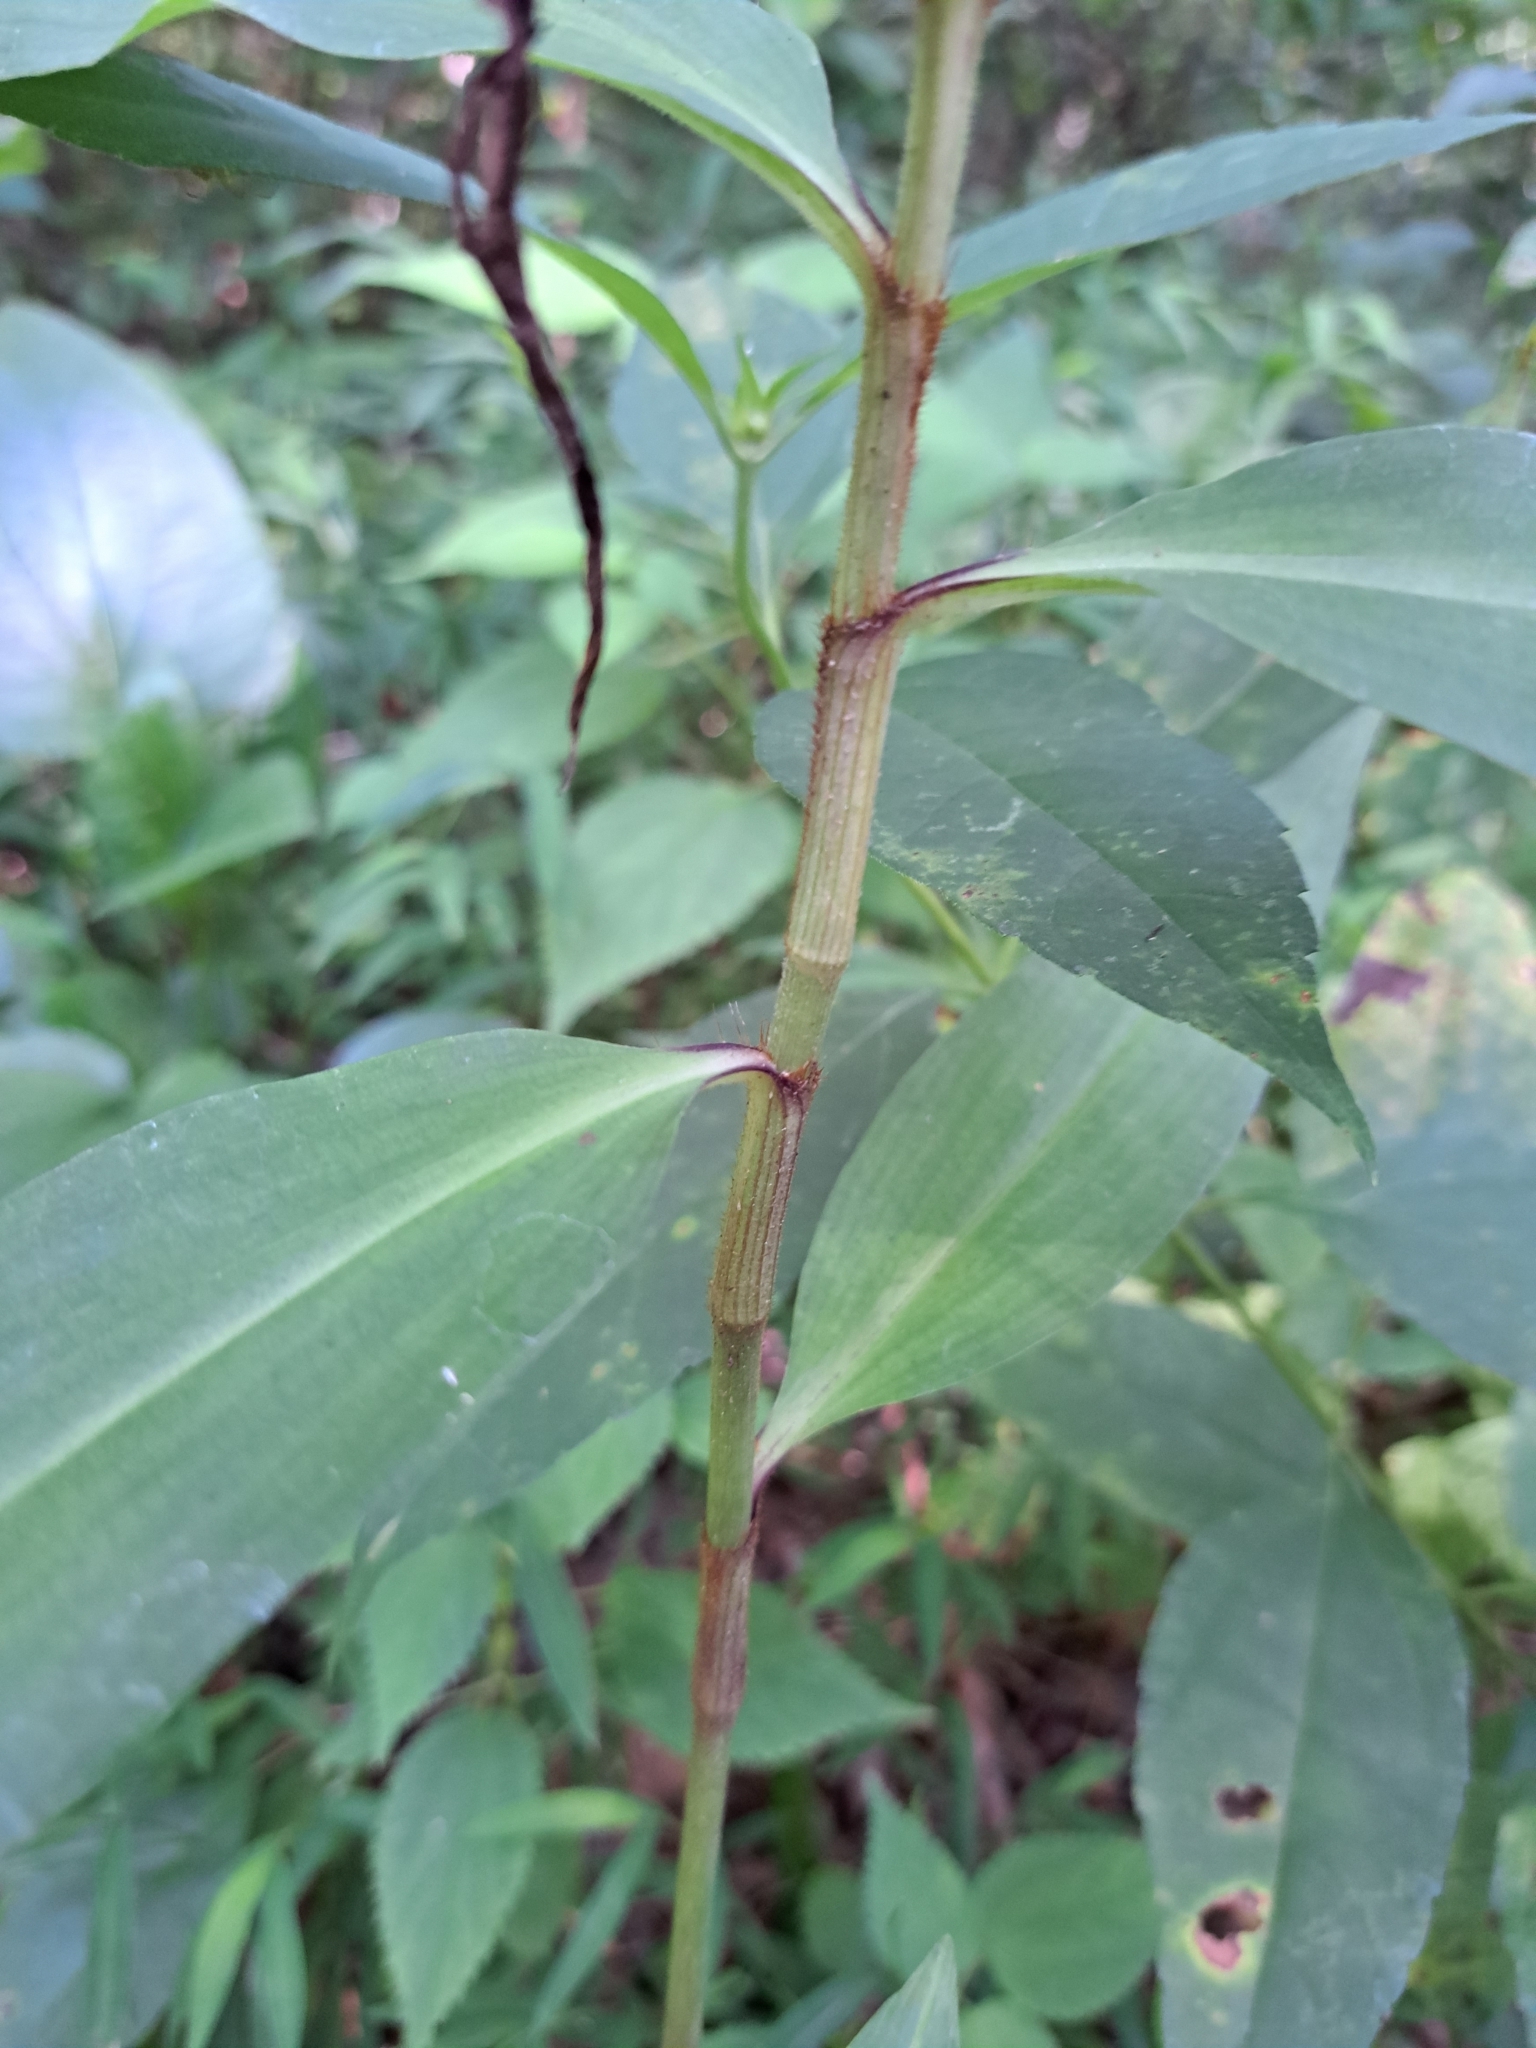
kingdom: Plantae
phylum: Tracheophyta
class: Liliopsida
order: Commelinales
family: Commelinaceae
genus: Commelina
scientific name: Commelina virginica
